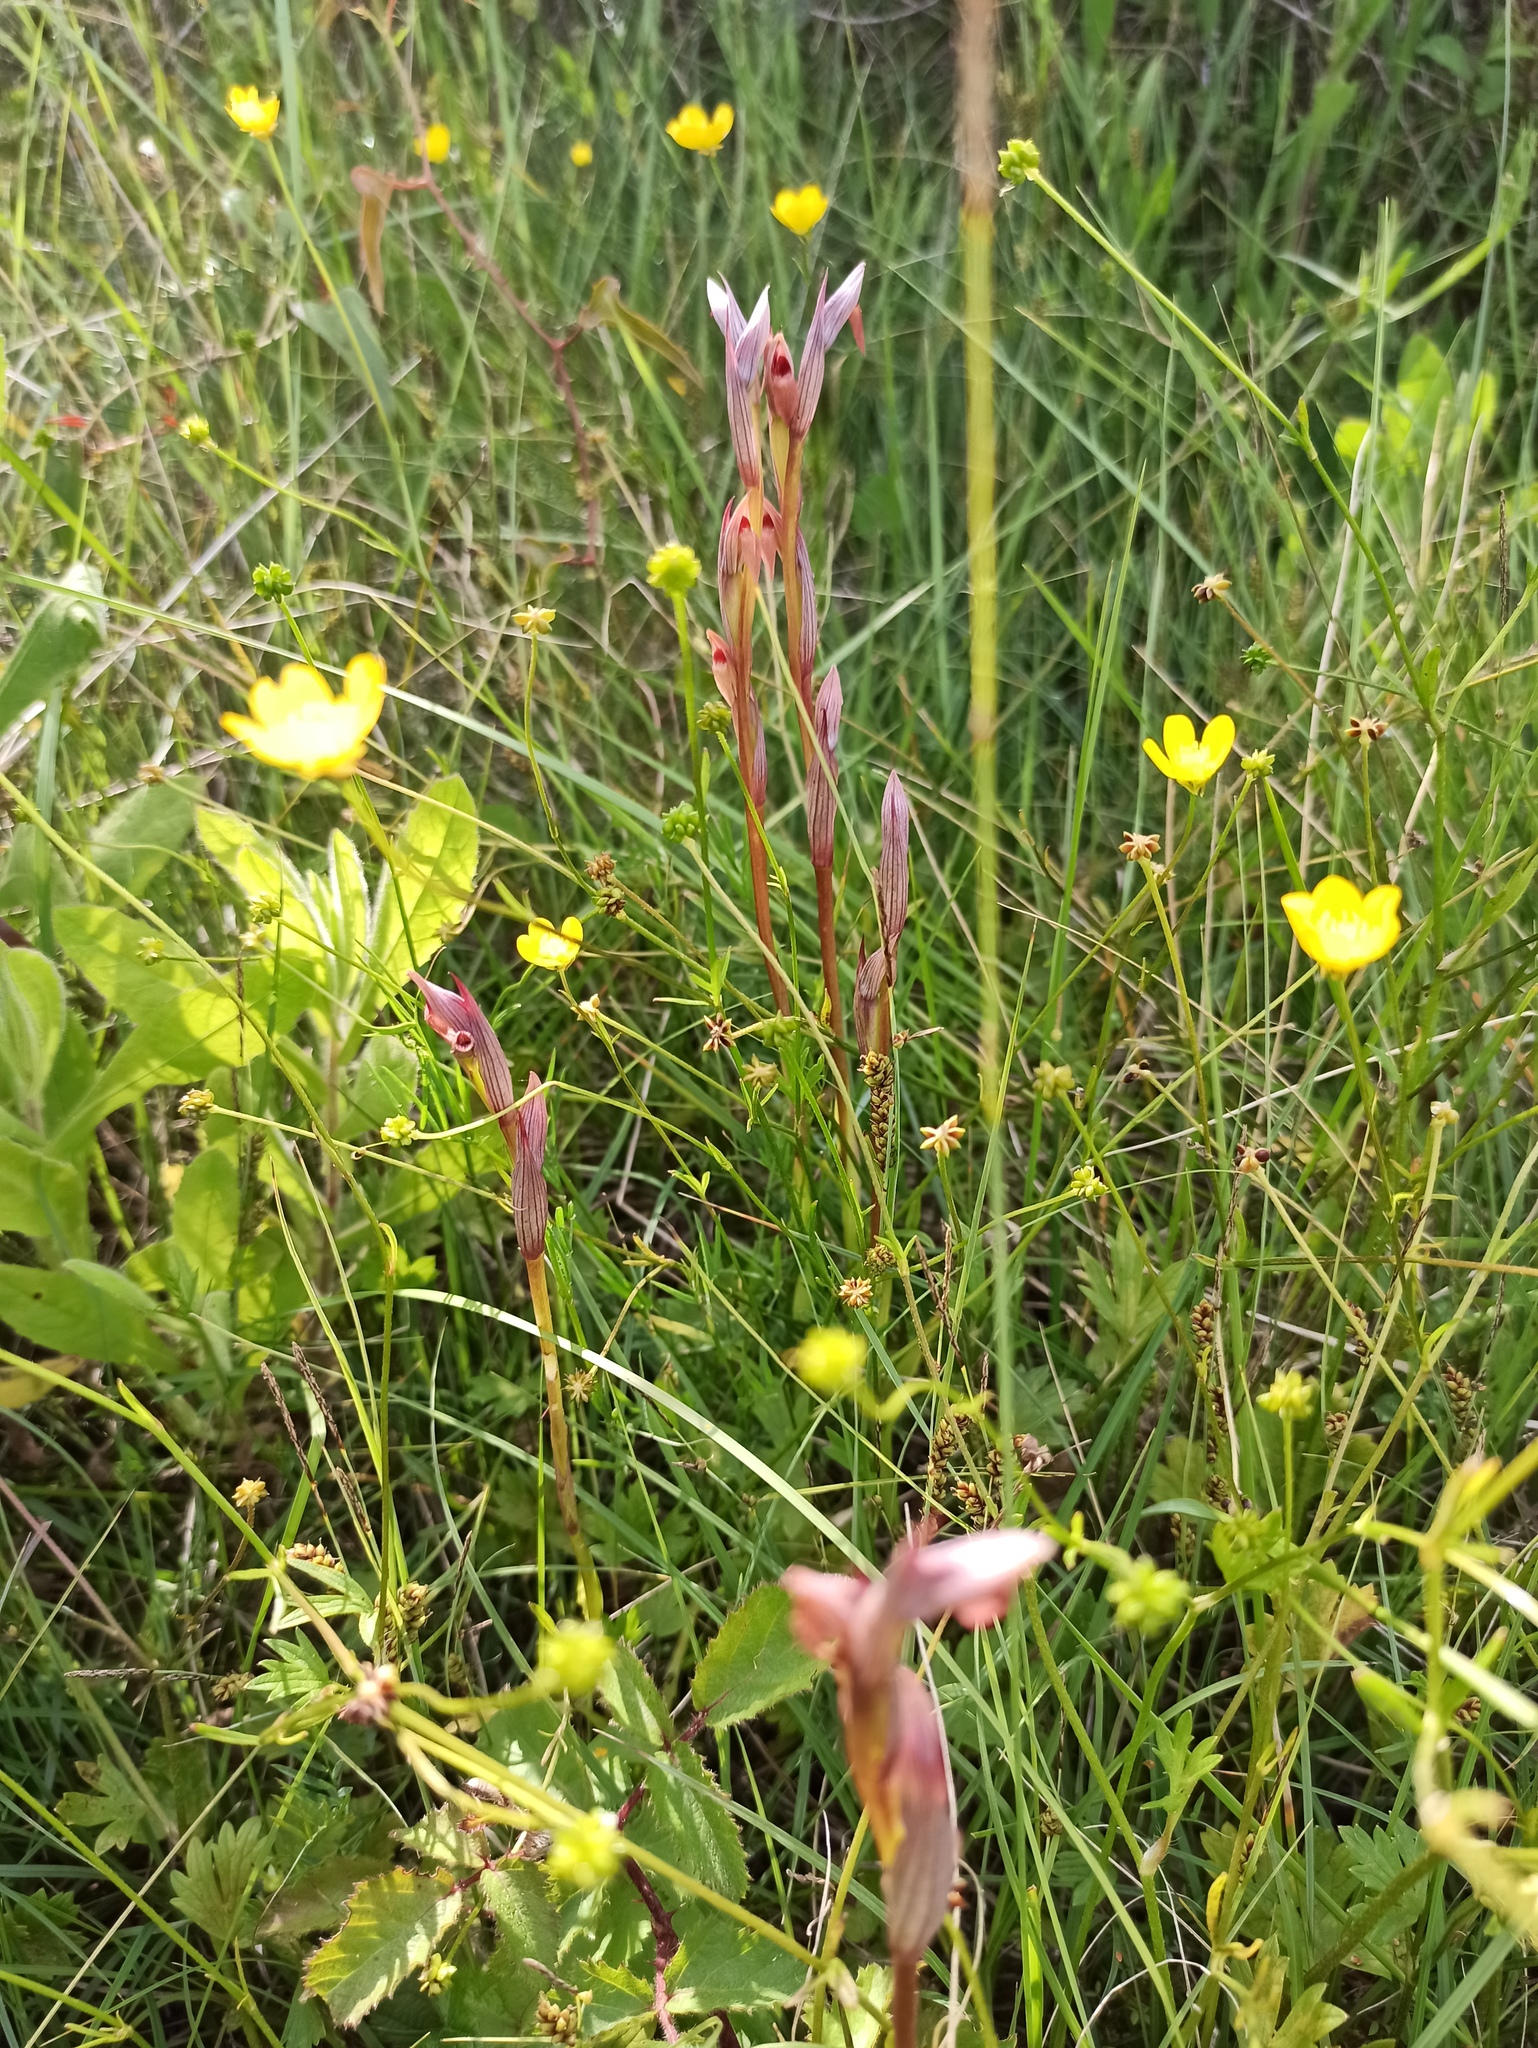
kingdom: Plantae
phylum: Tracheophyta
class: Liliopsida
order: Asparagales
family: Orchidaceae
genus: Serapias
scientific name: Serapias parviflora
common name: Small-flowered tongue-orchid
